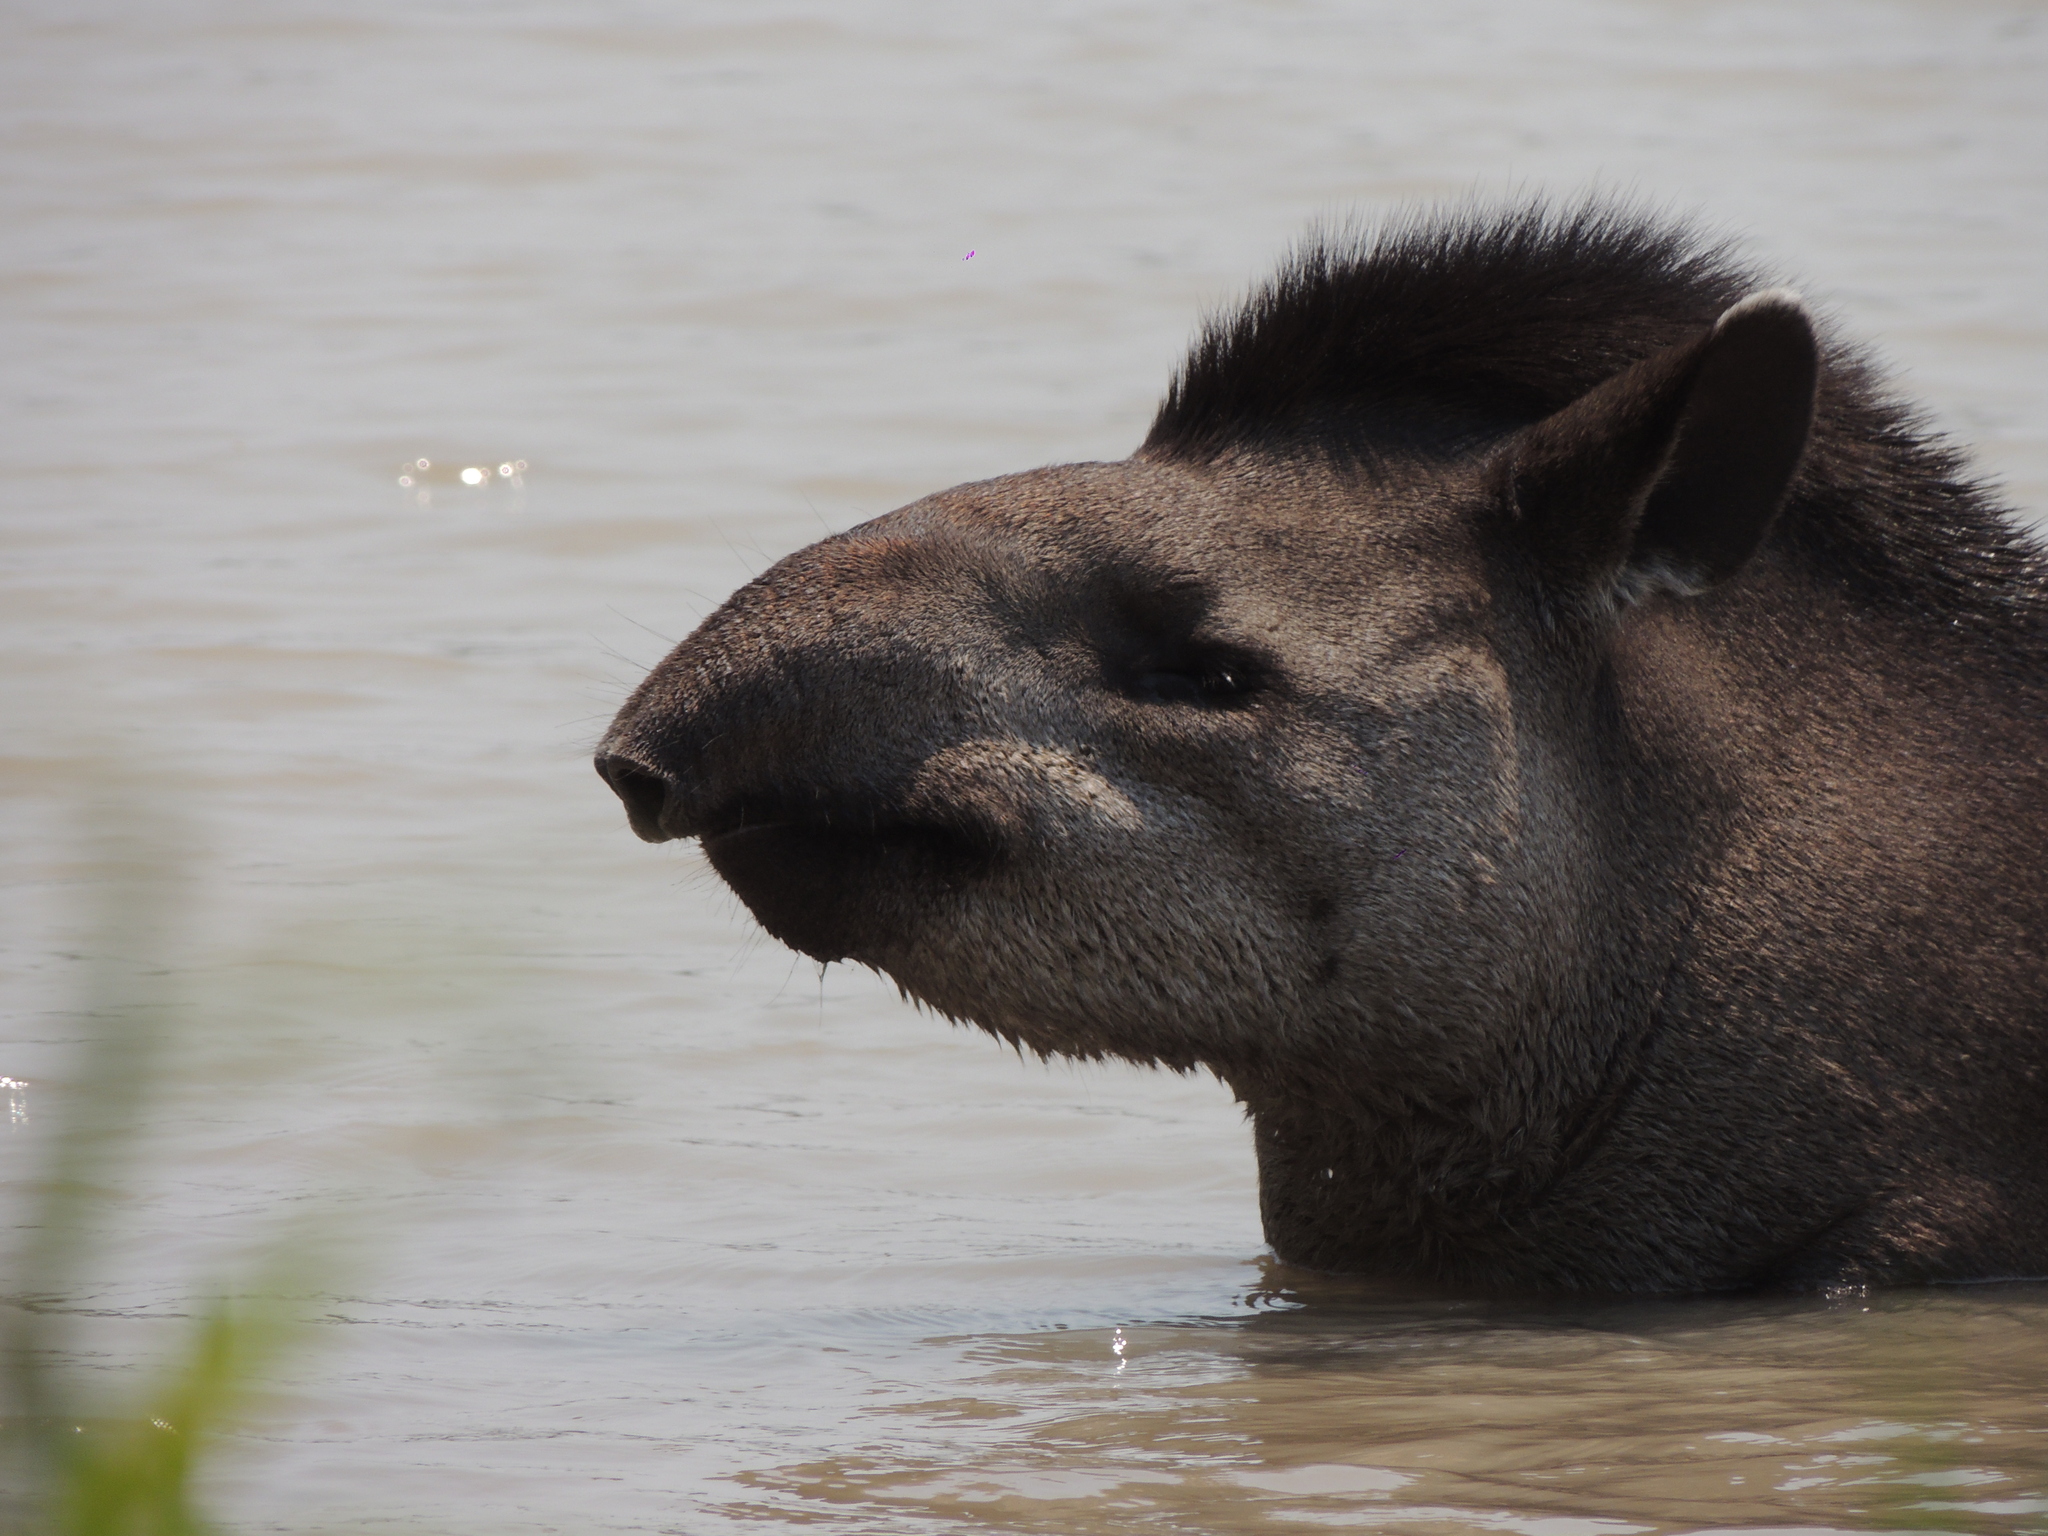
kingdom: Animalia
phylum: Chordata
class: Mammalia
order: Perissodactyla
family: Tapiridae
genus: Tapirus
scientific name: Tapirus terrestris
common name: Brazilian tapir
